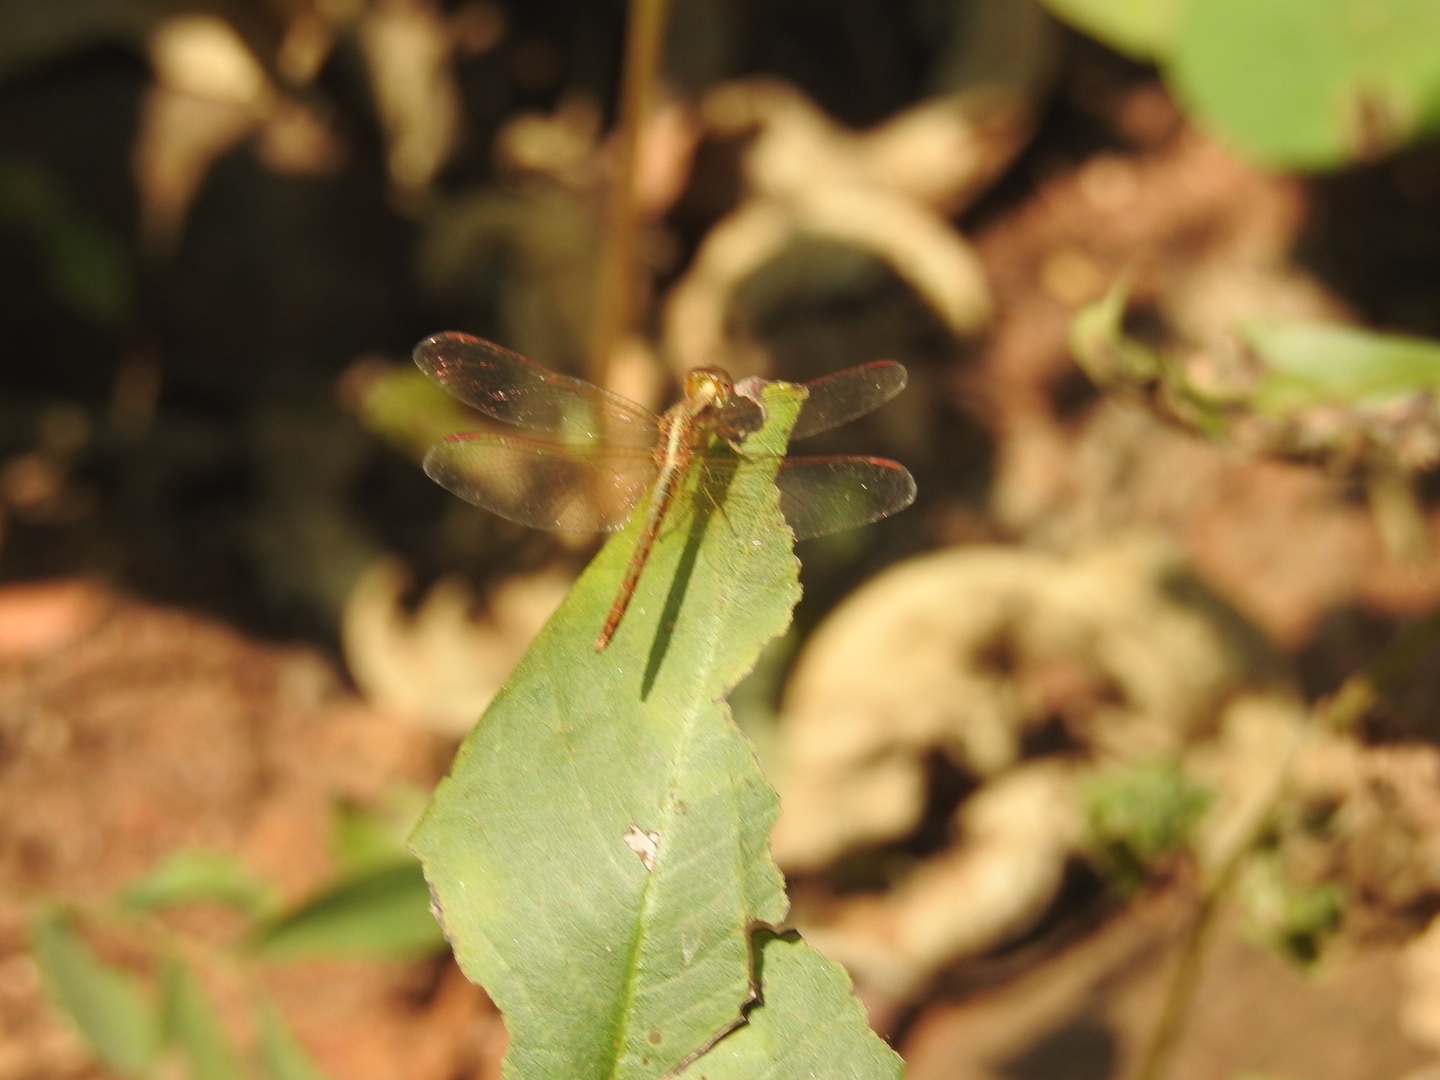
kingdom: Animalia
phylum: Arthropoda
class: Insecta
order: Odonata
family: Libellulidae
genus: Neurothemis
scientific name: Neurothemis intermedia
